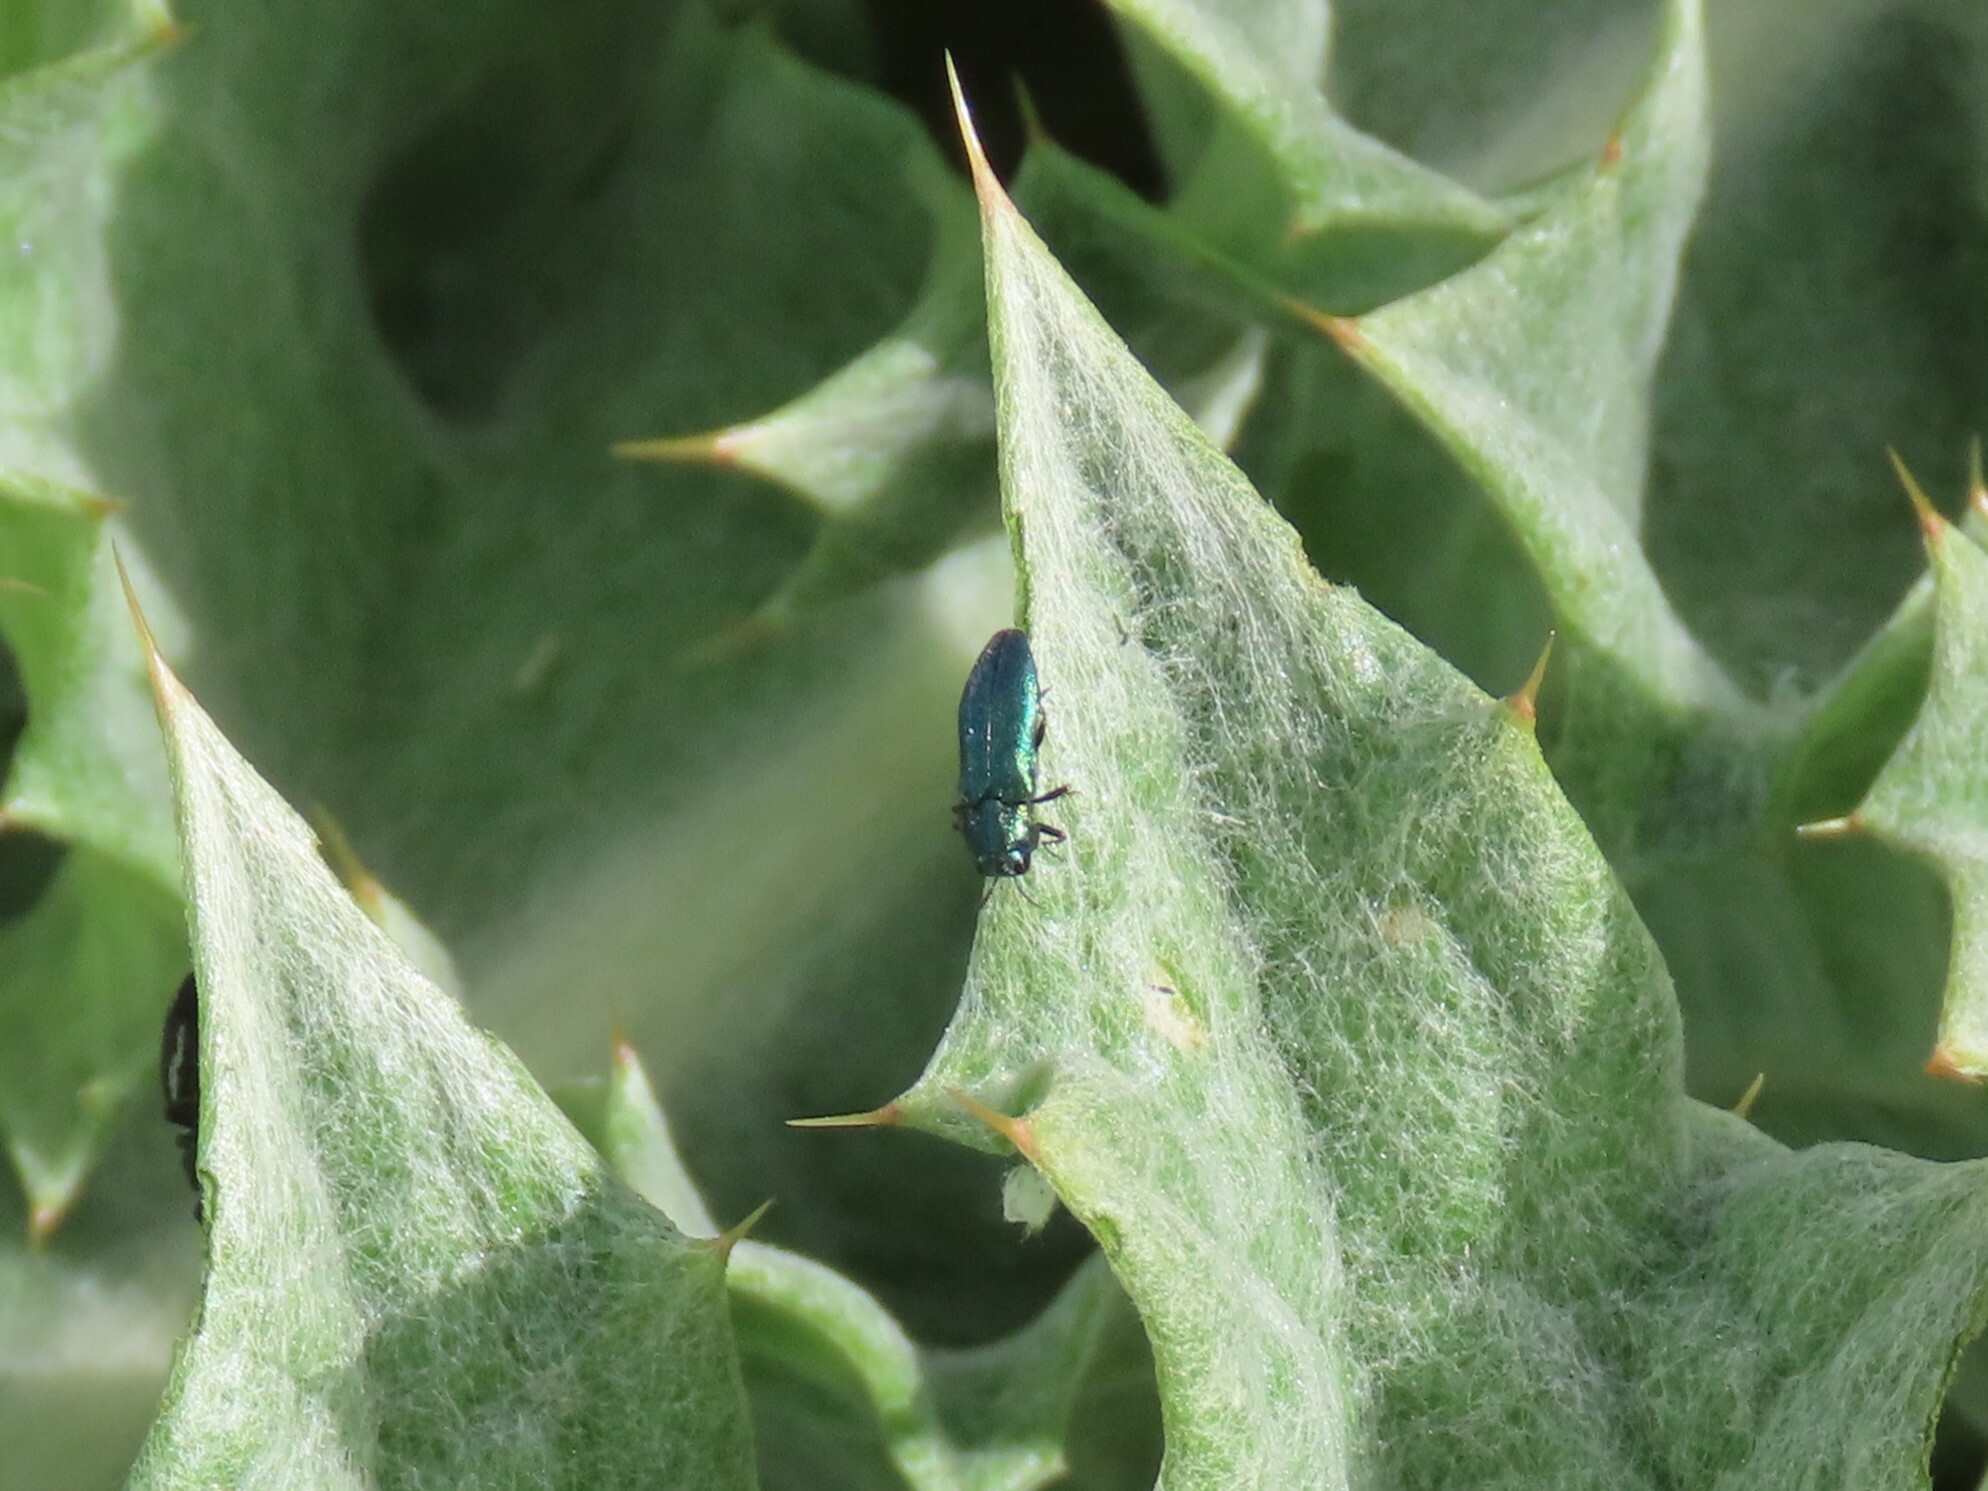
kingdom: Animalia
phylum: Arthropoda
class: Insecta
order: Coleoptera
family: Buprestidae
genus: Meliboeus
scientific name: Meliboeus amethystinus
